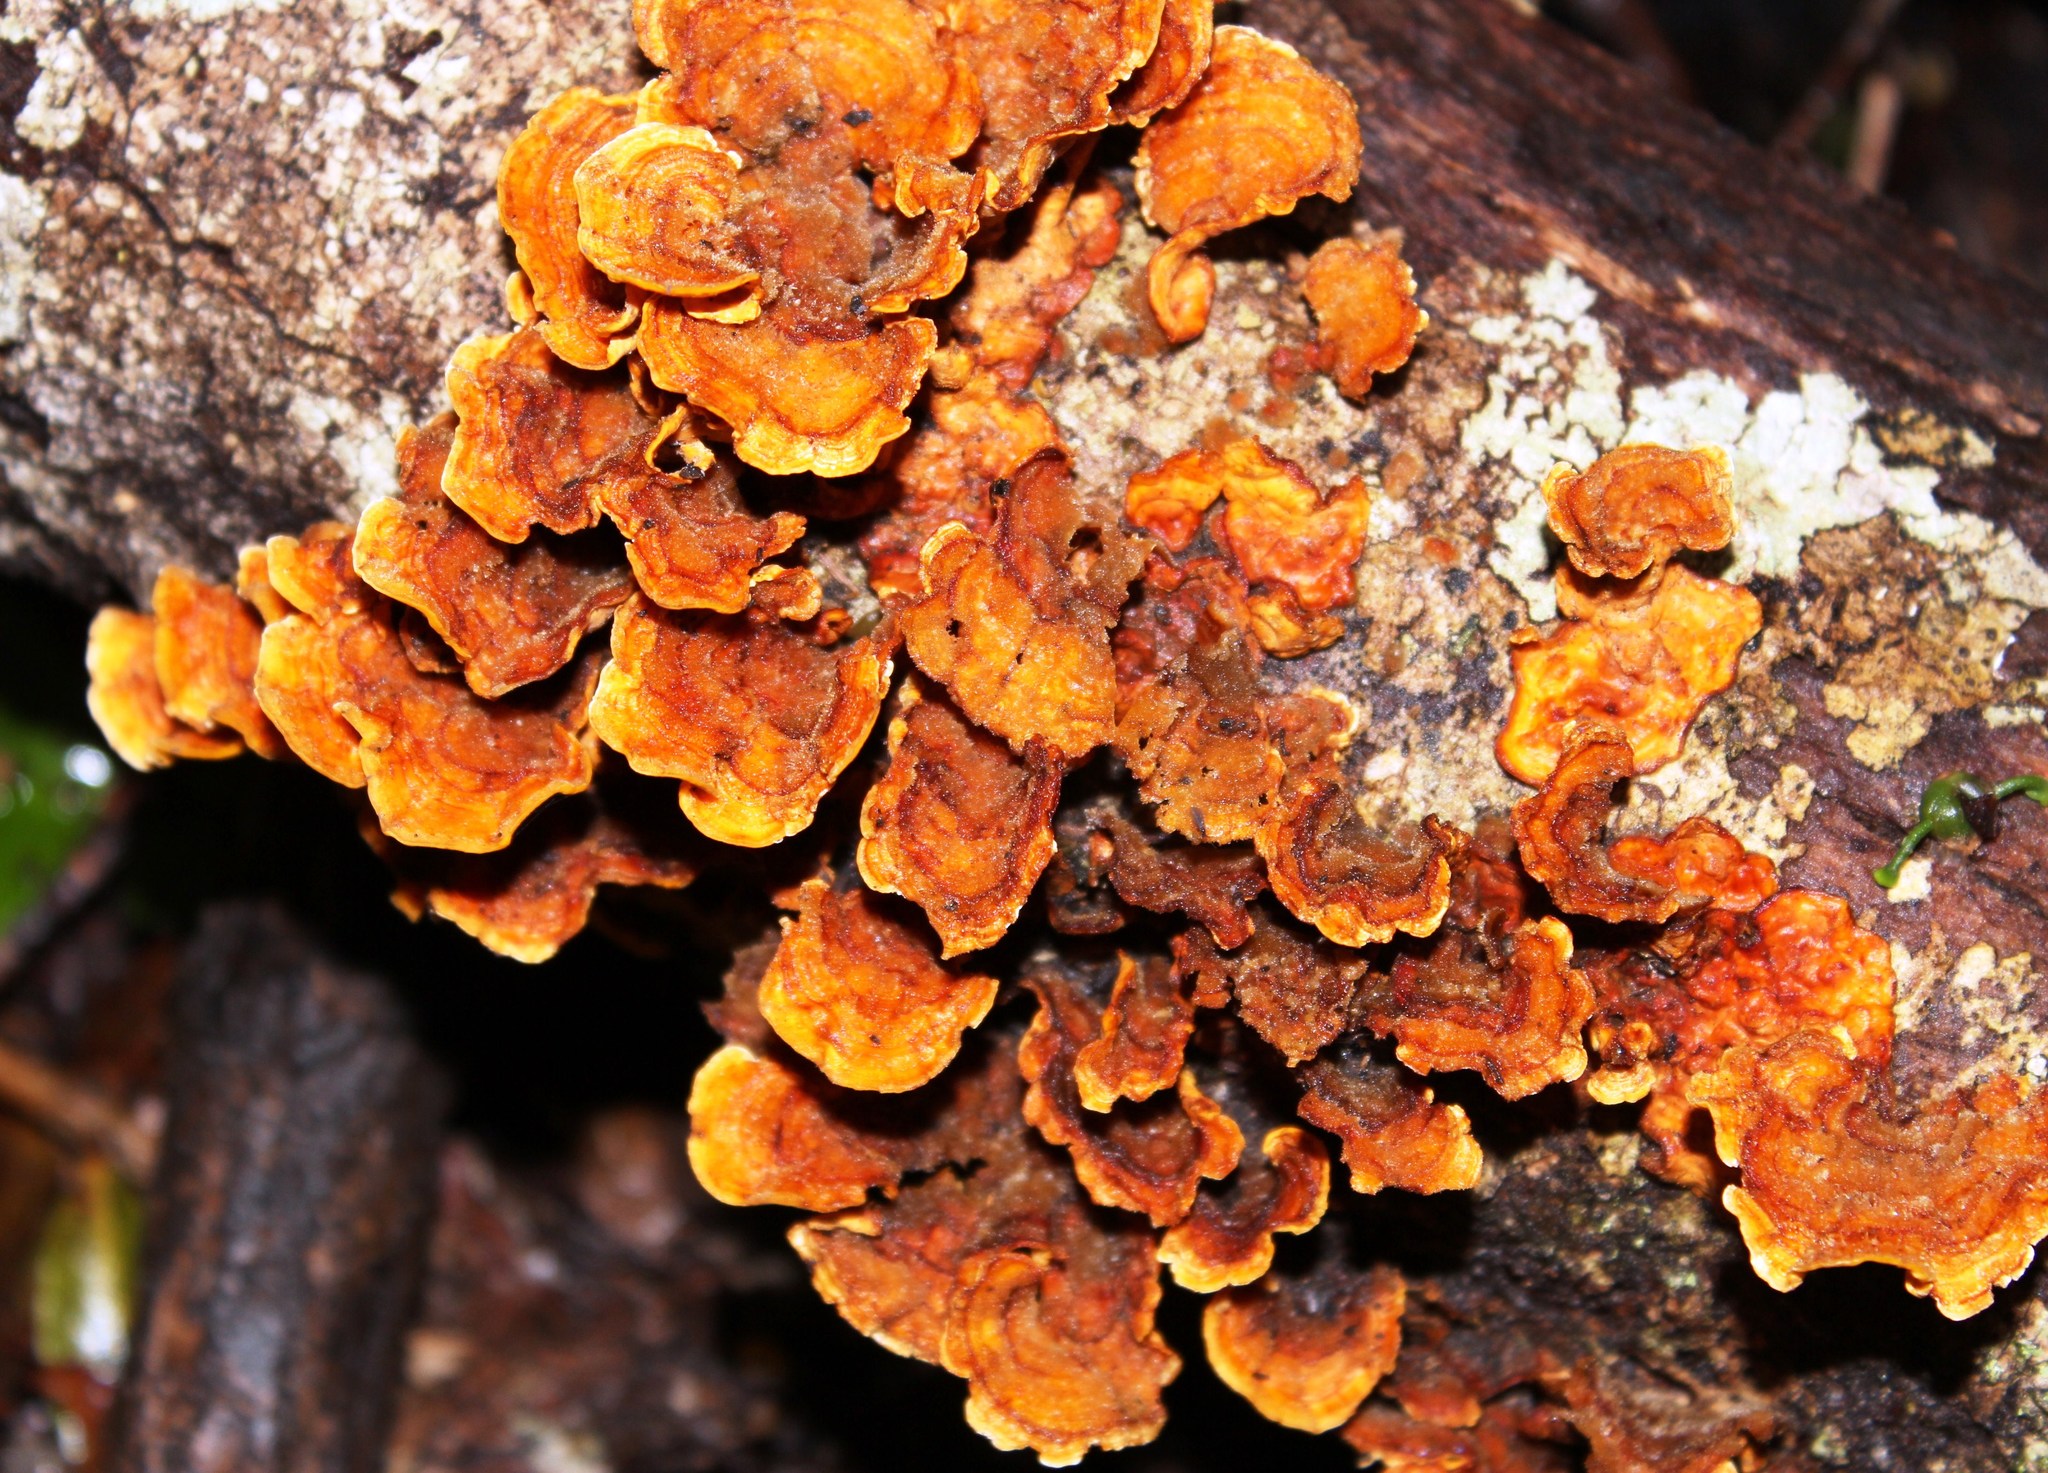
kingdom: Fungi
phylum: Basidiomycota
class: Agaricomycetes
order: Polyporales
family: Polyporaceae
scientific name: Polyporaceae
